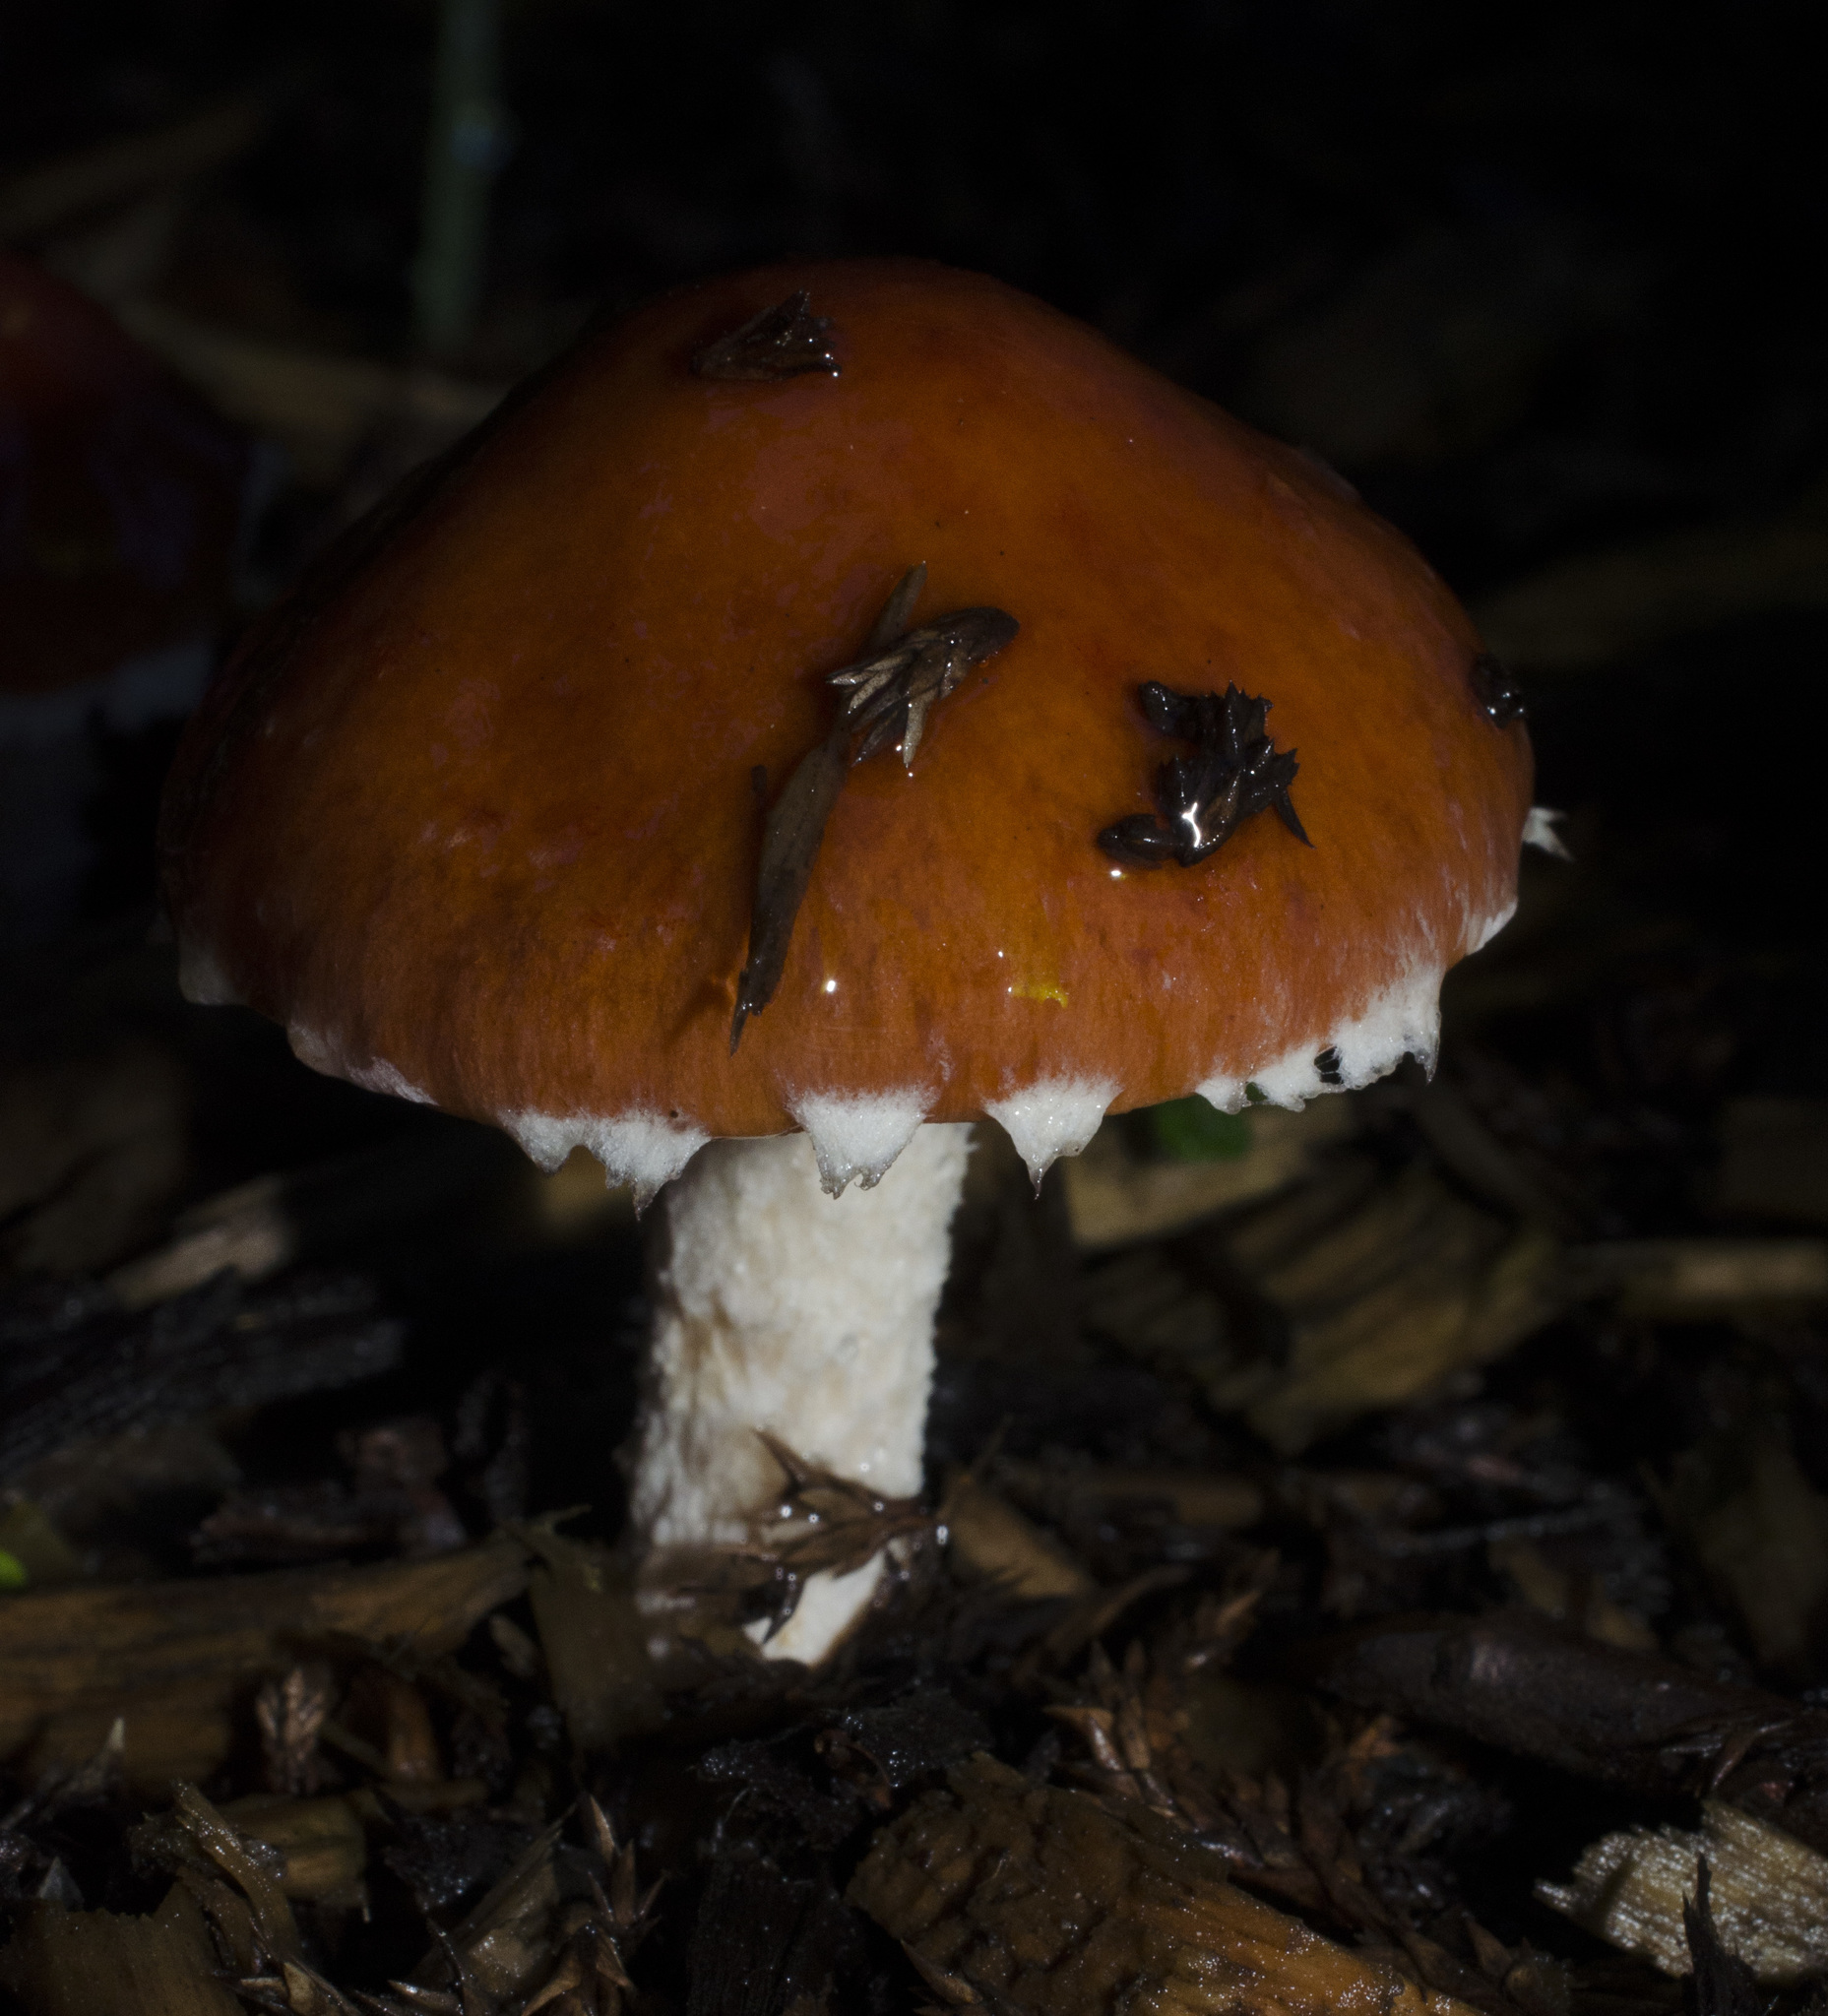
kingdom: Fungi
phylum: Basidiomycota
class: Agaricomycetes
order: Agaricales
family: Strophariaceae
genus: Leratiomyces
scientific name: Leratiomyces ceres
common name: Redlead roundhead
